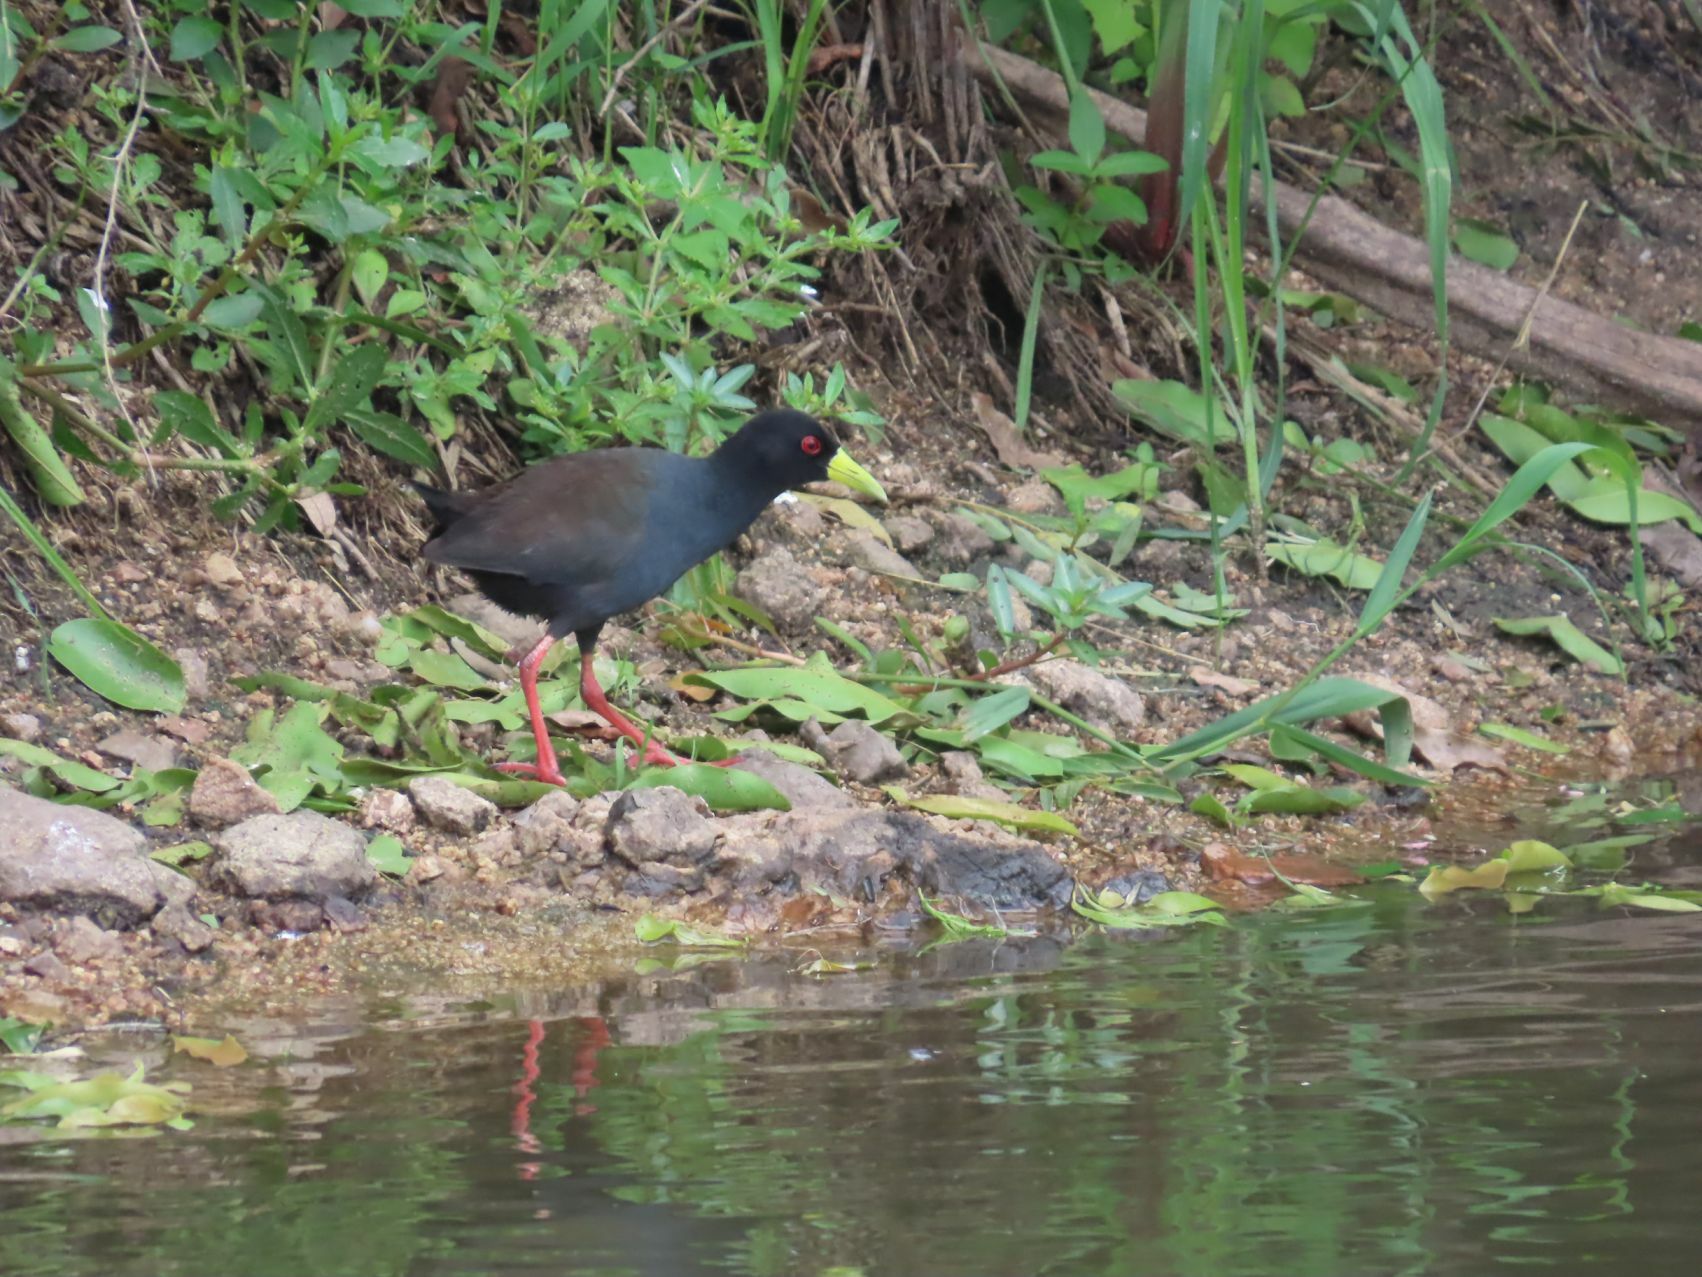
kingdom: Animalia
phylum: Chordata
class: Aves
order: Gruiformes
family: Rallidae
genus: Amaurornis
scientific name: Amaurornis flavirostra
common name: Black crake
